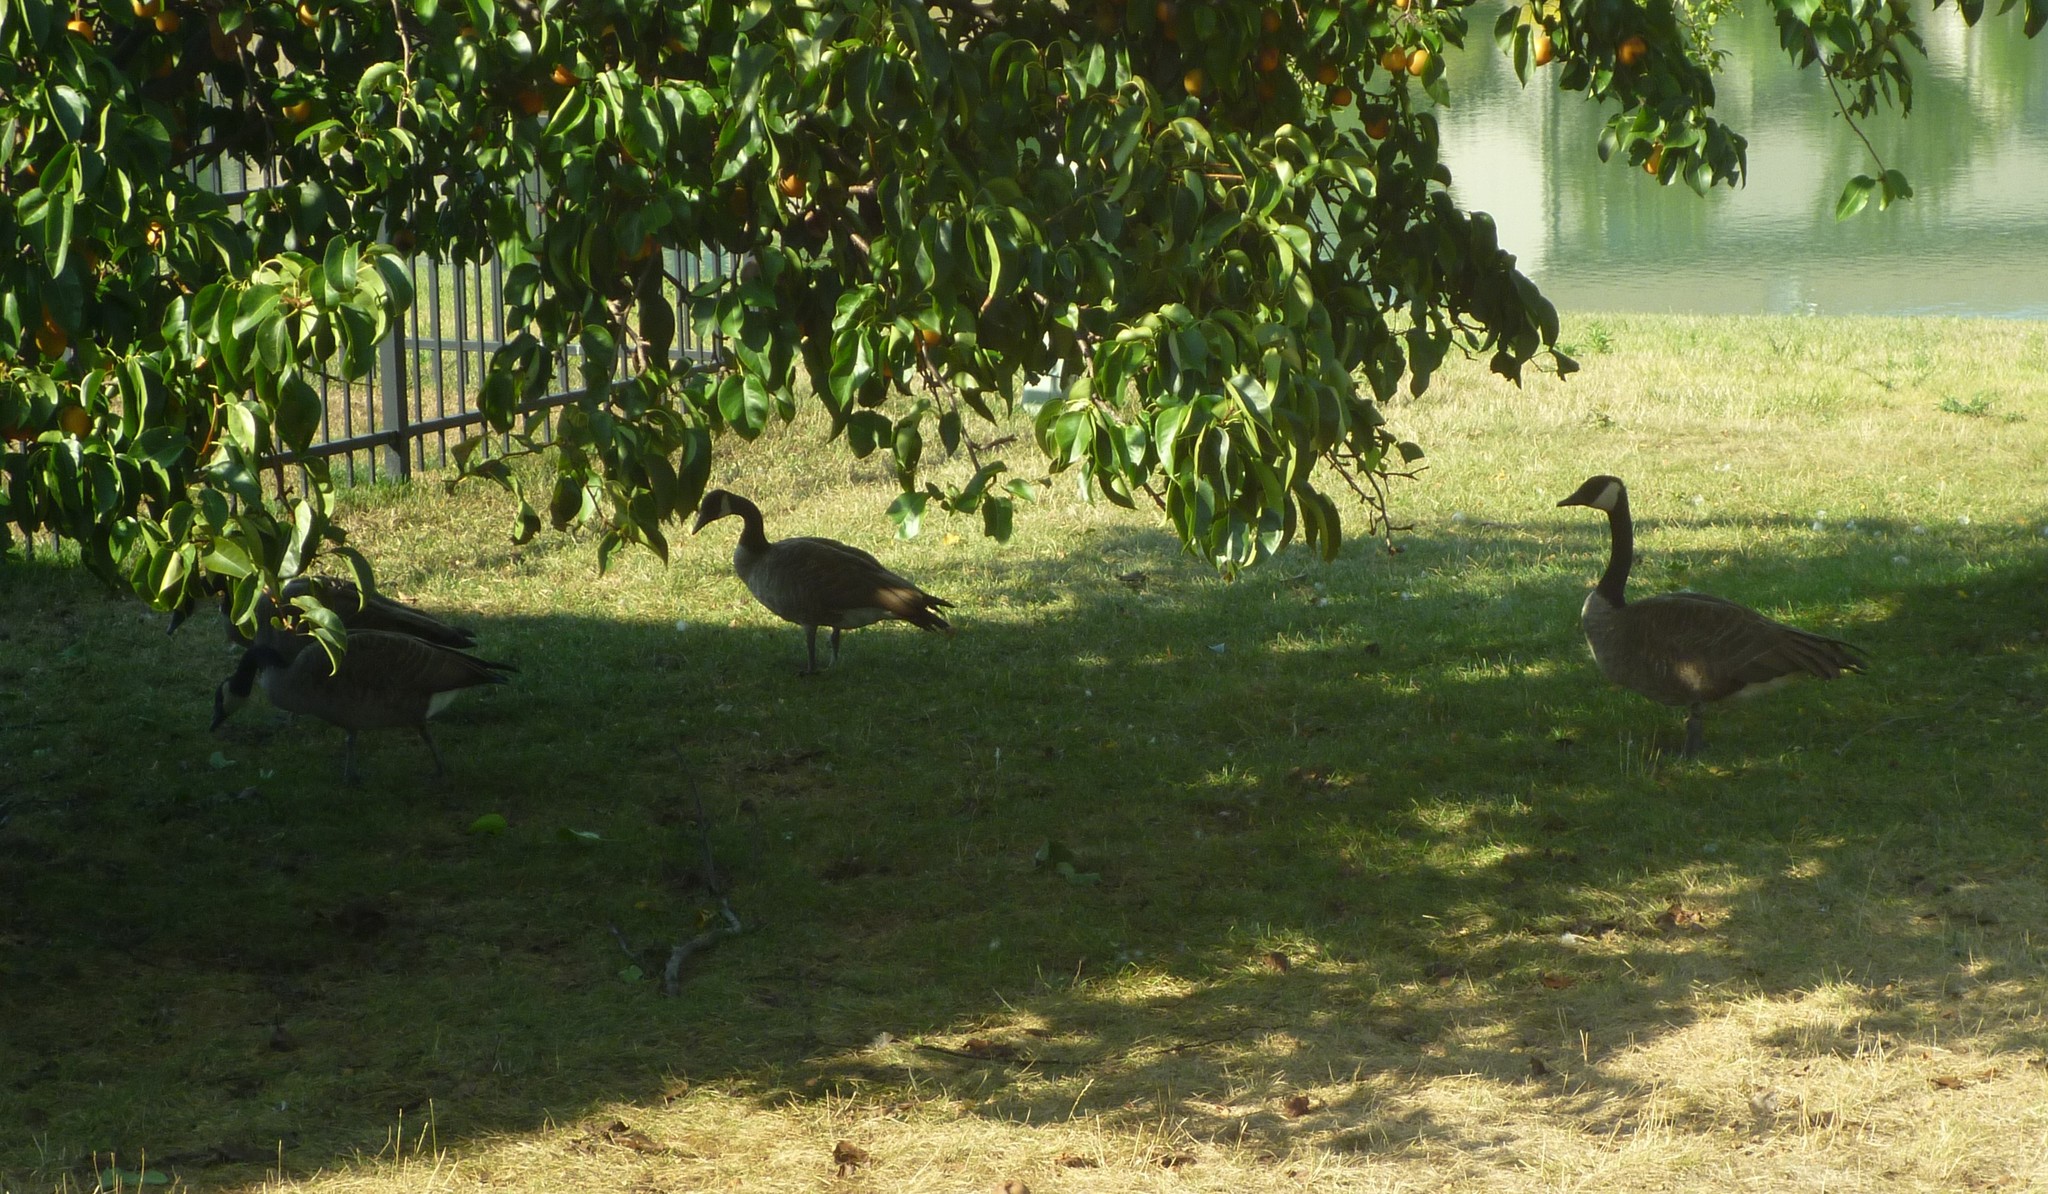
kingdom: Animalia
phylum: Chordata
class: Aves
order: Anseriformes
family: Anatidae
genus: Branta
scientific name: Branta canadensis
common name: Canada goose
